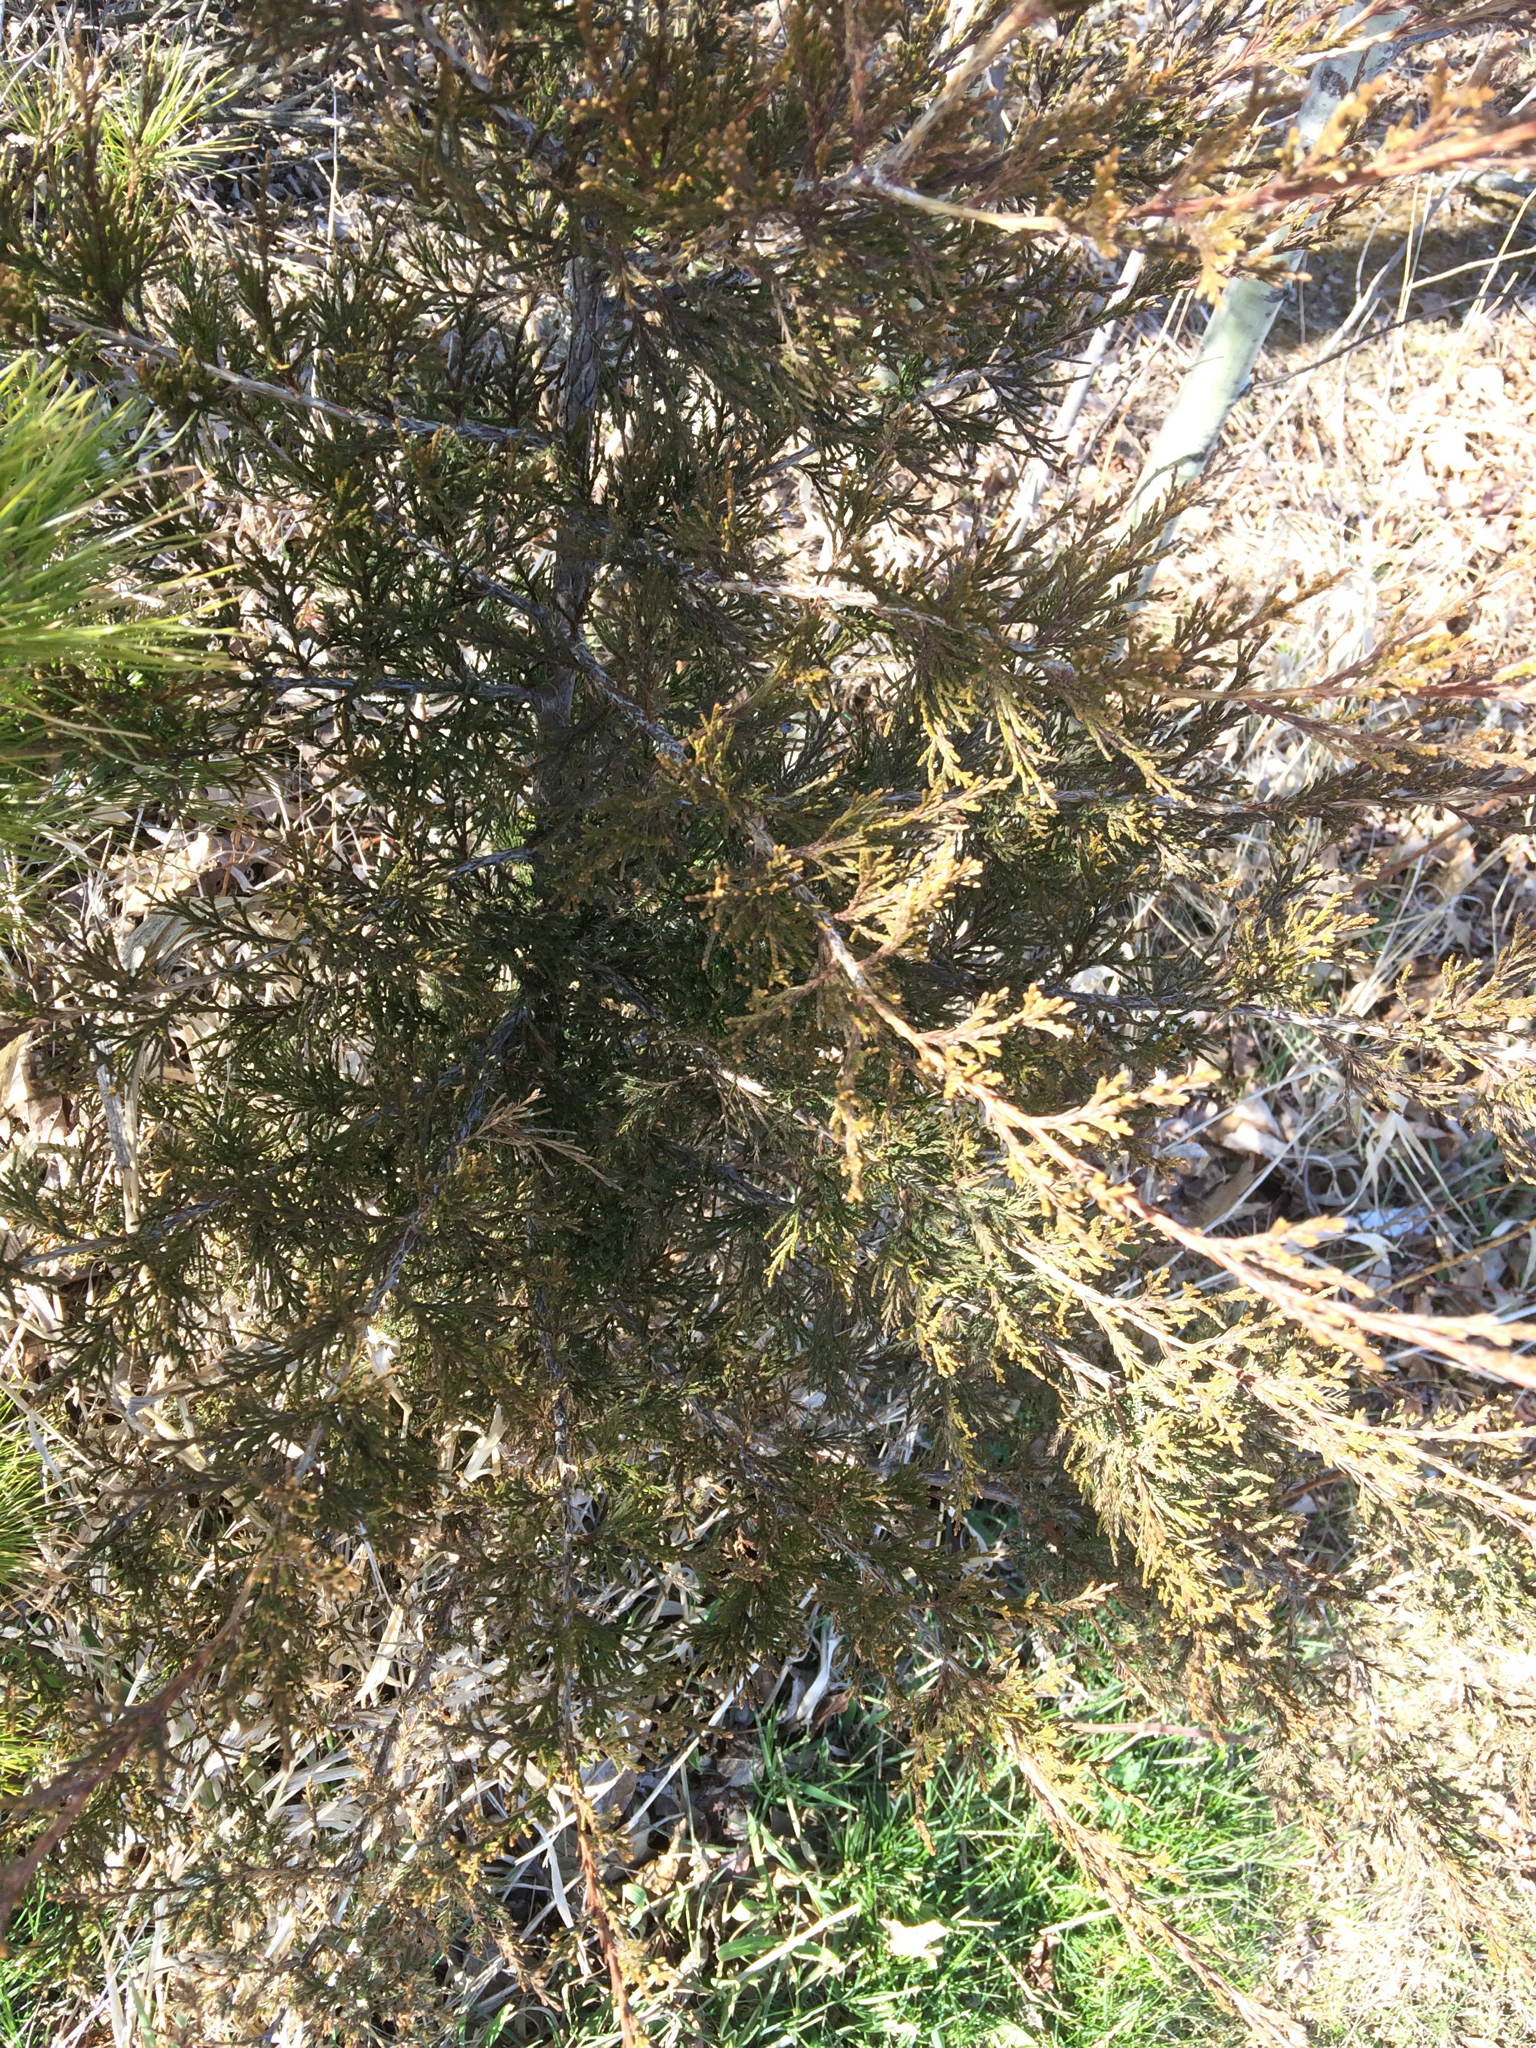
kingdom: Plantae
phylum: Tracheophyta
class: Pinopsida
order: Pinales
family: Cupressaceae
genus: Juniperus
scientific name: Juniperus virginiana
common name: Red juniper
